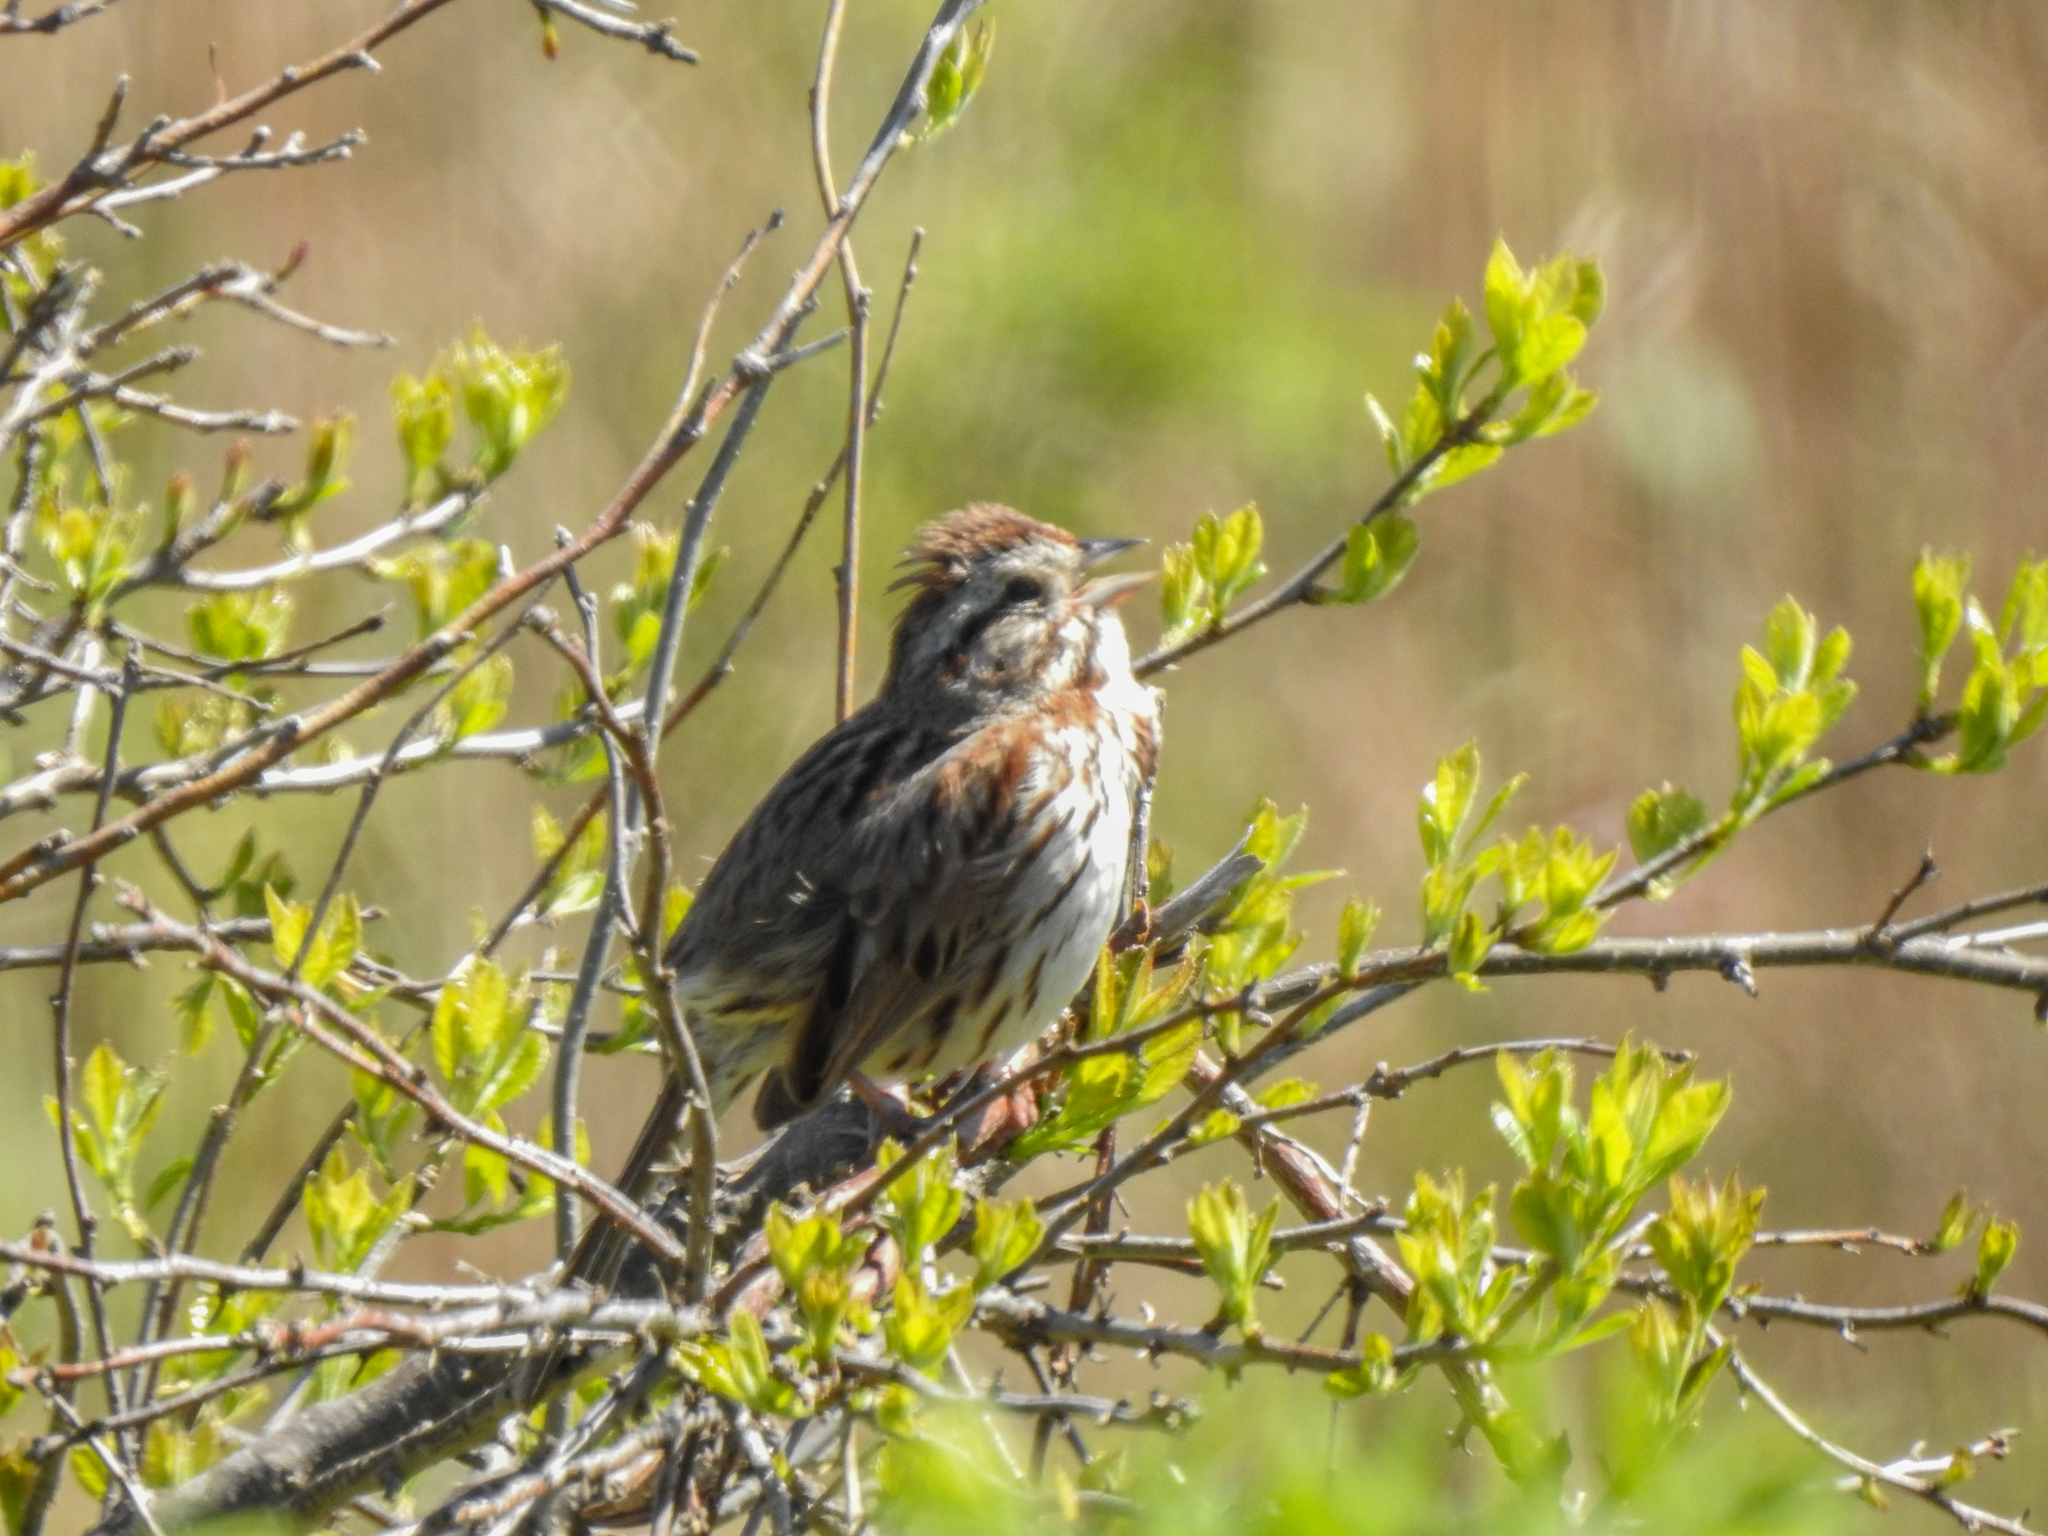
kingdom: Animalia
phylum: Chordata
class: Aves
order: Passeriformes
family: Passerellidae
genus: Melospiza
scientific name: Melospiza melodia
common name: Song sparrow
